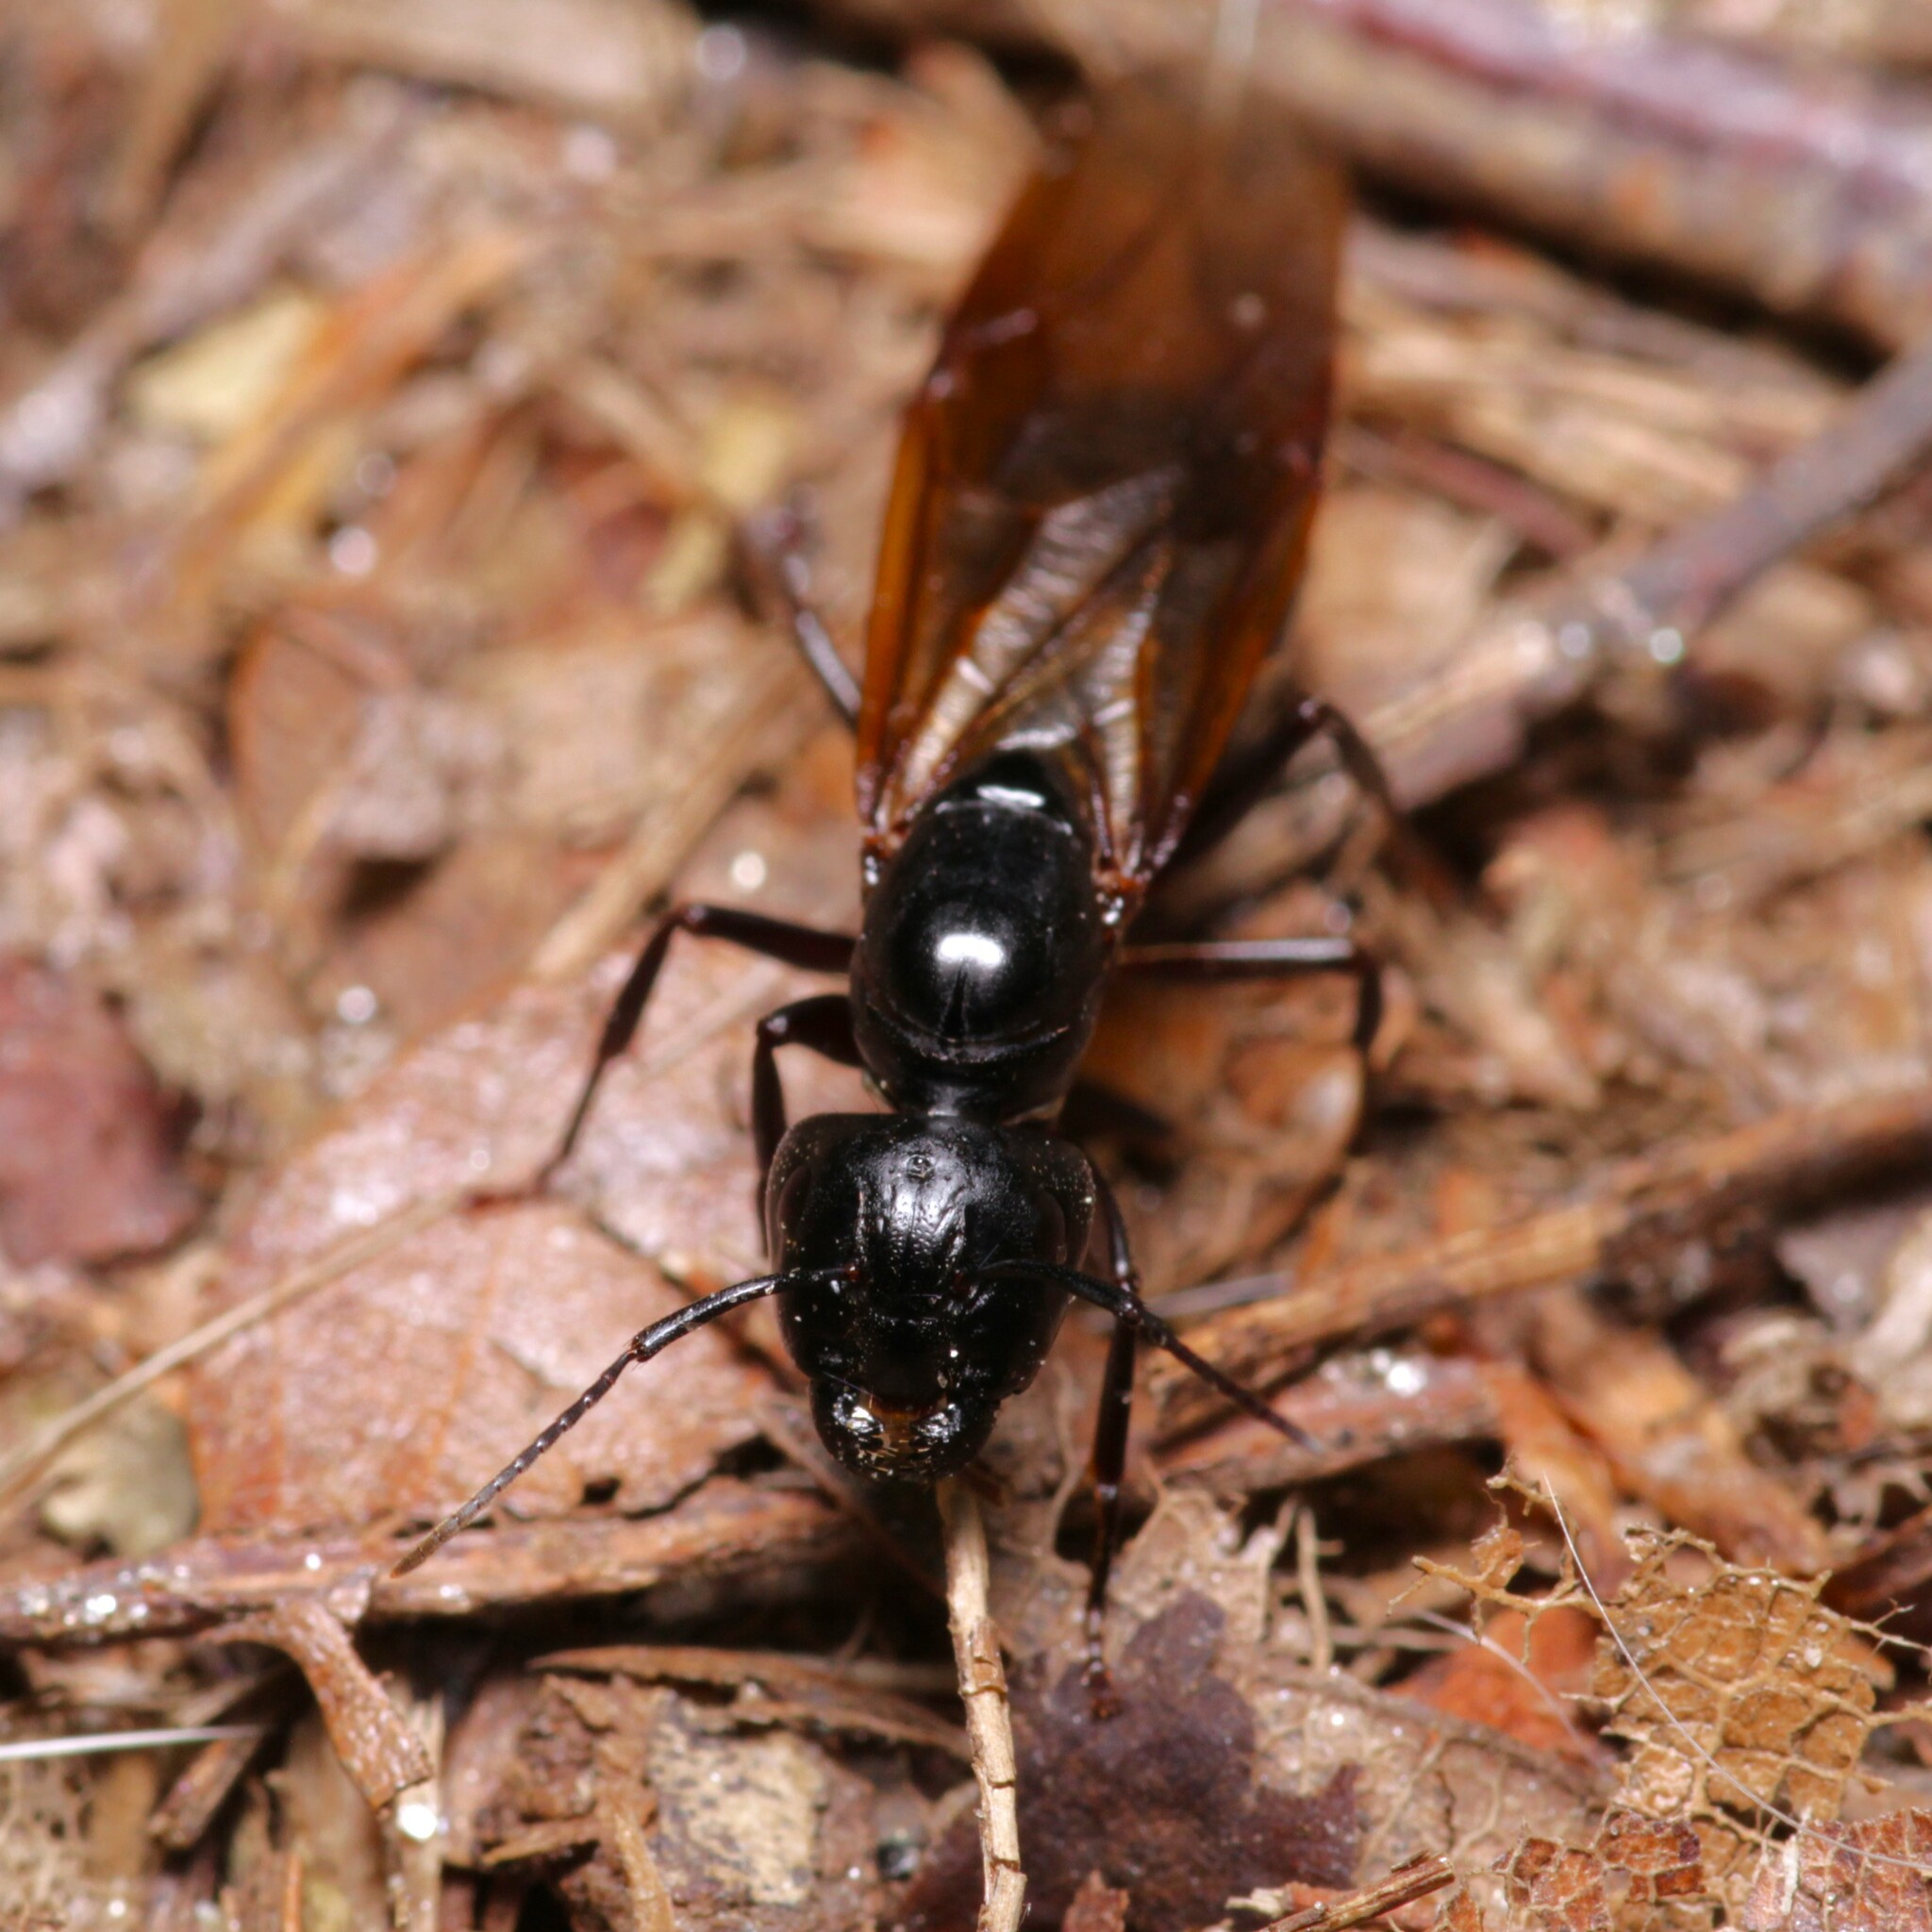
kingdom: Animalia
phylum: Arthropoda
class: Insecta
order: Hymenoptera
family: Formicidae
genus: Camponotus
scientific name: Camponotus pennsylvanicus
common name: Black carpenter ant
